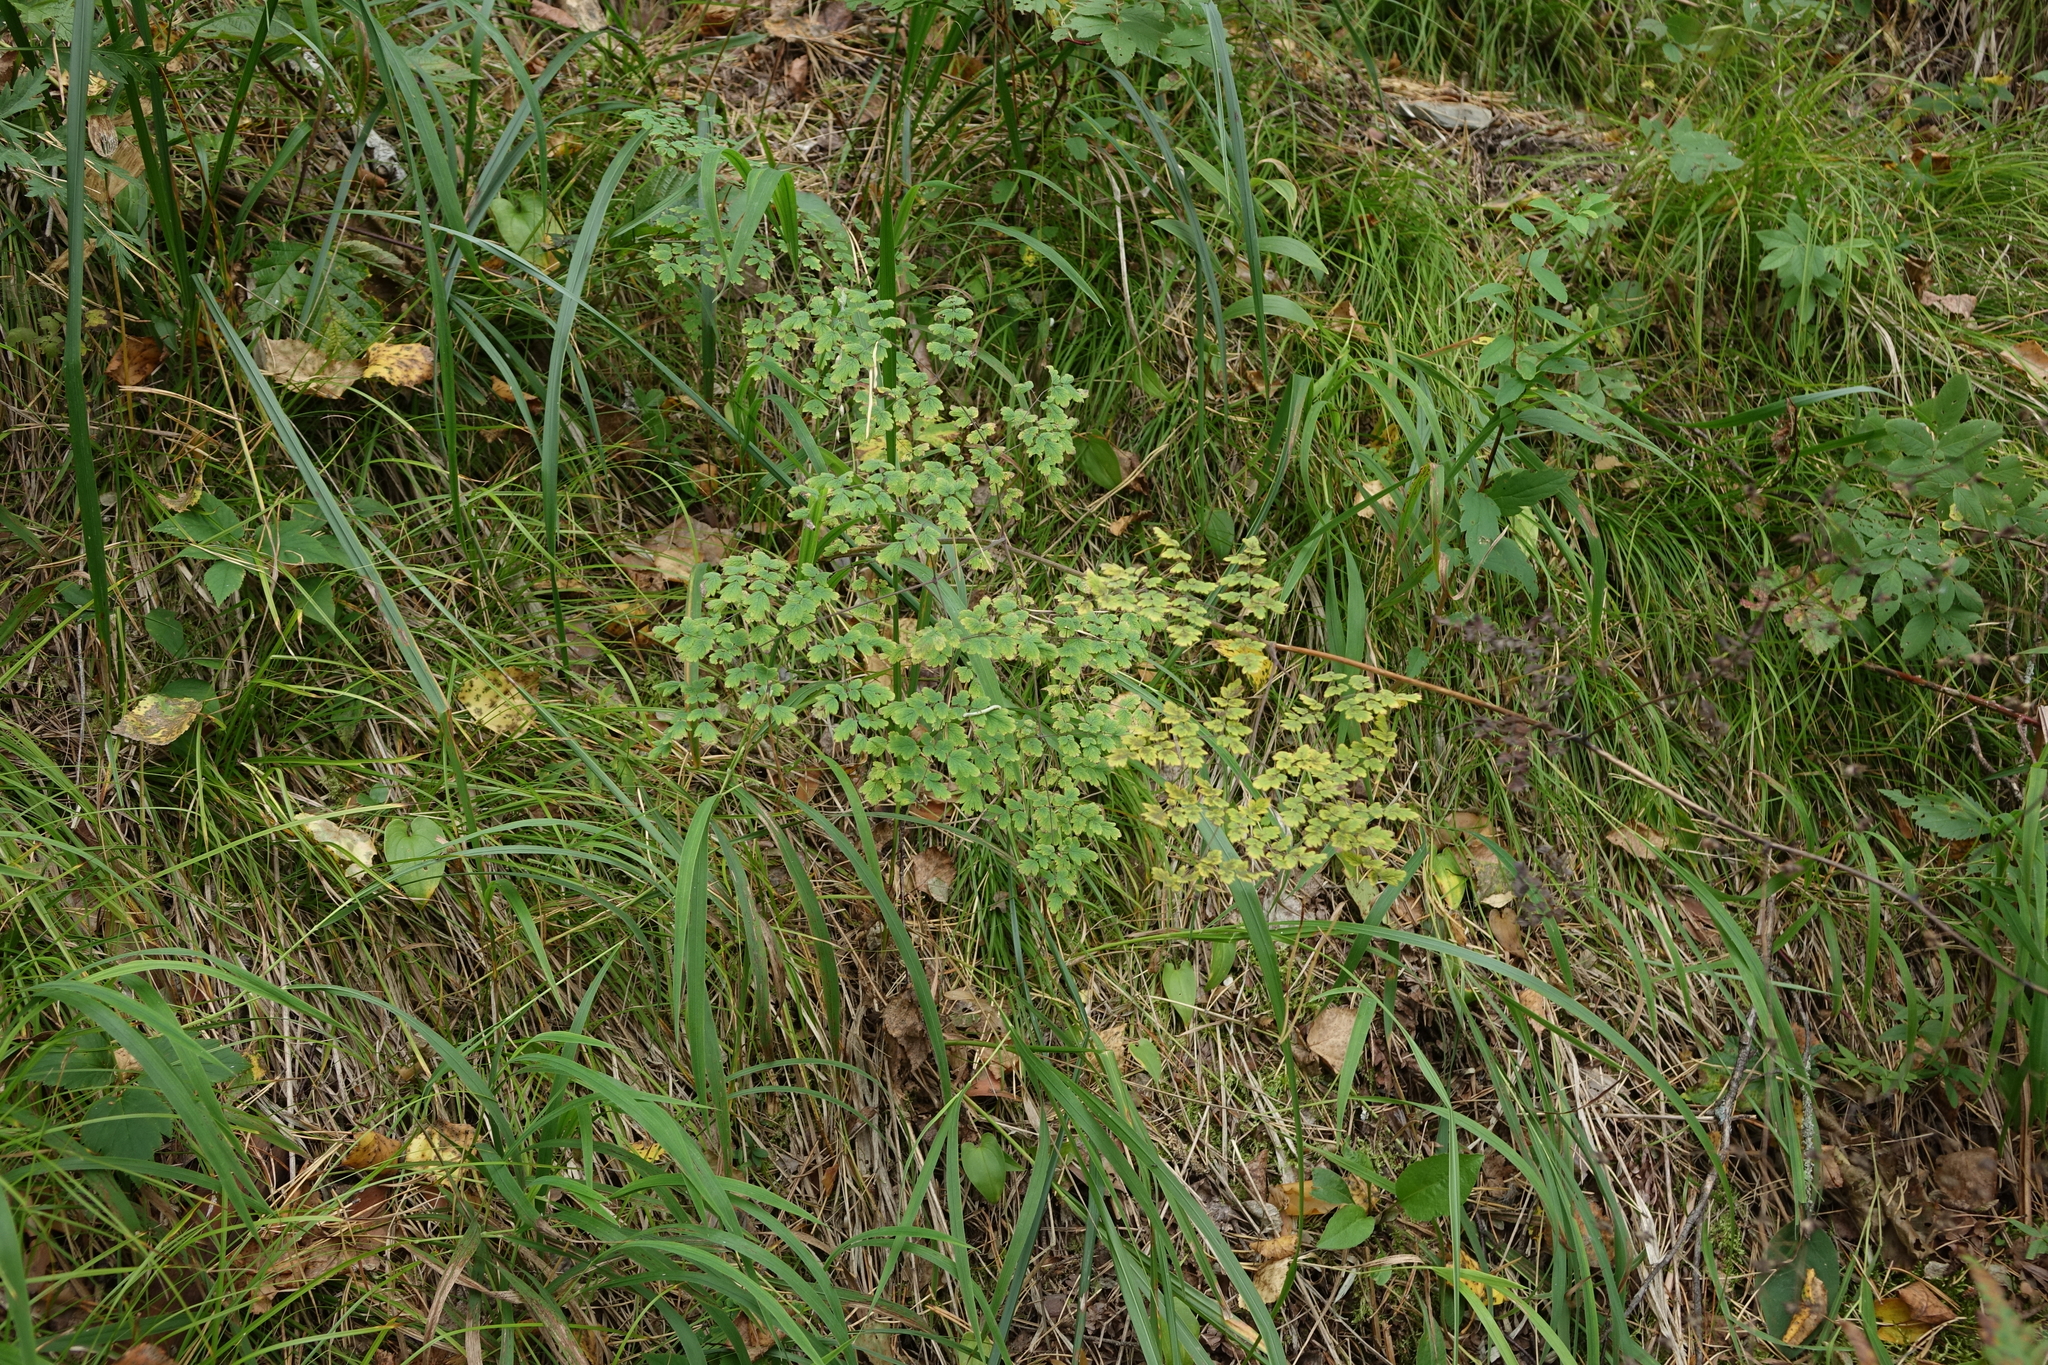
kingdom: Plantae
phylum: Tracheophyta
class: Magnoliopsida
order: Ranunculales
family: Ranunculaceae
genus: Thalictrum
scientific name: Thalictrum foetidum
